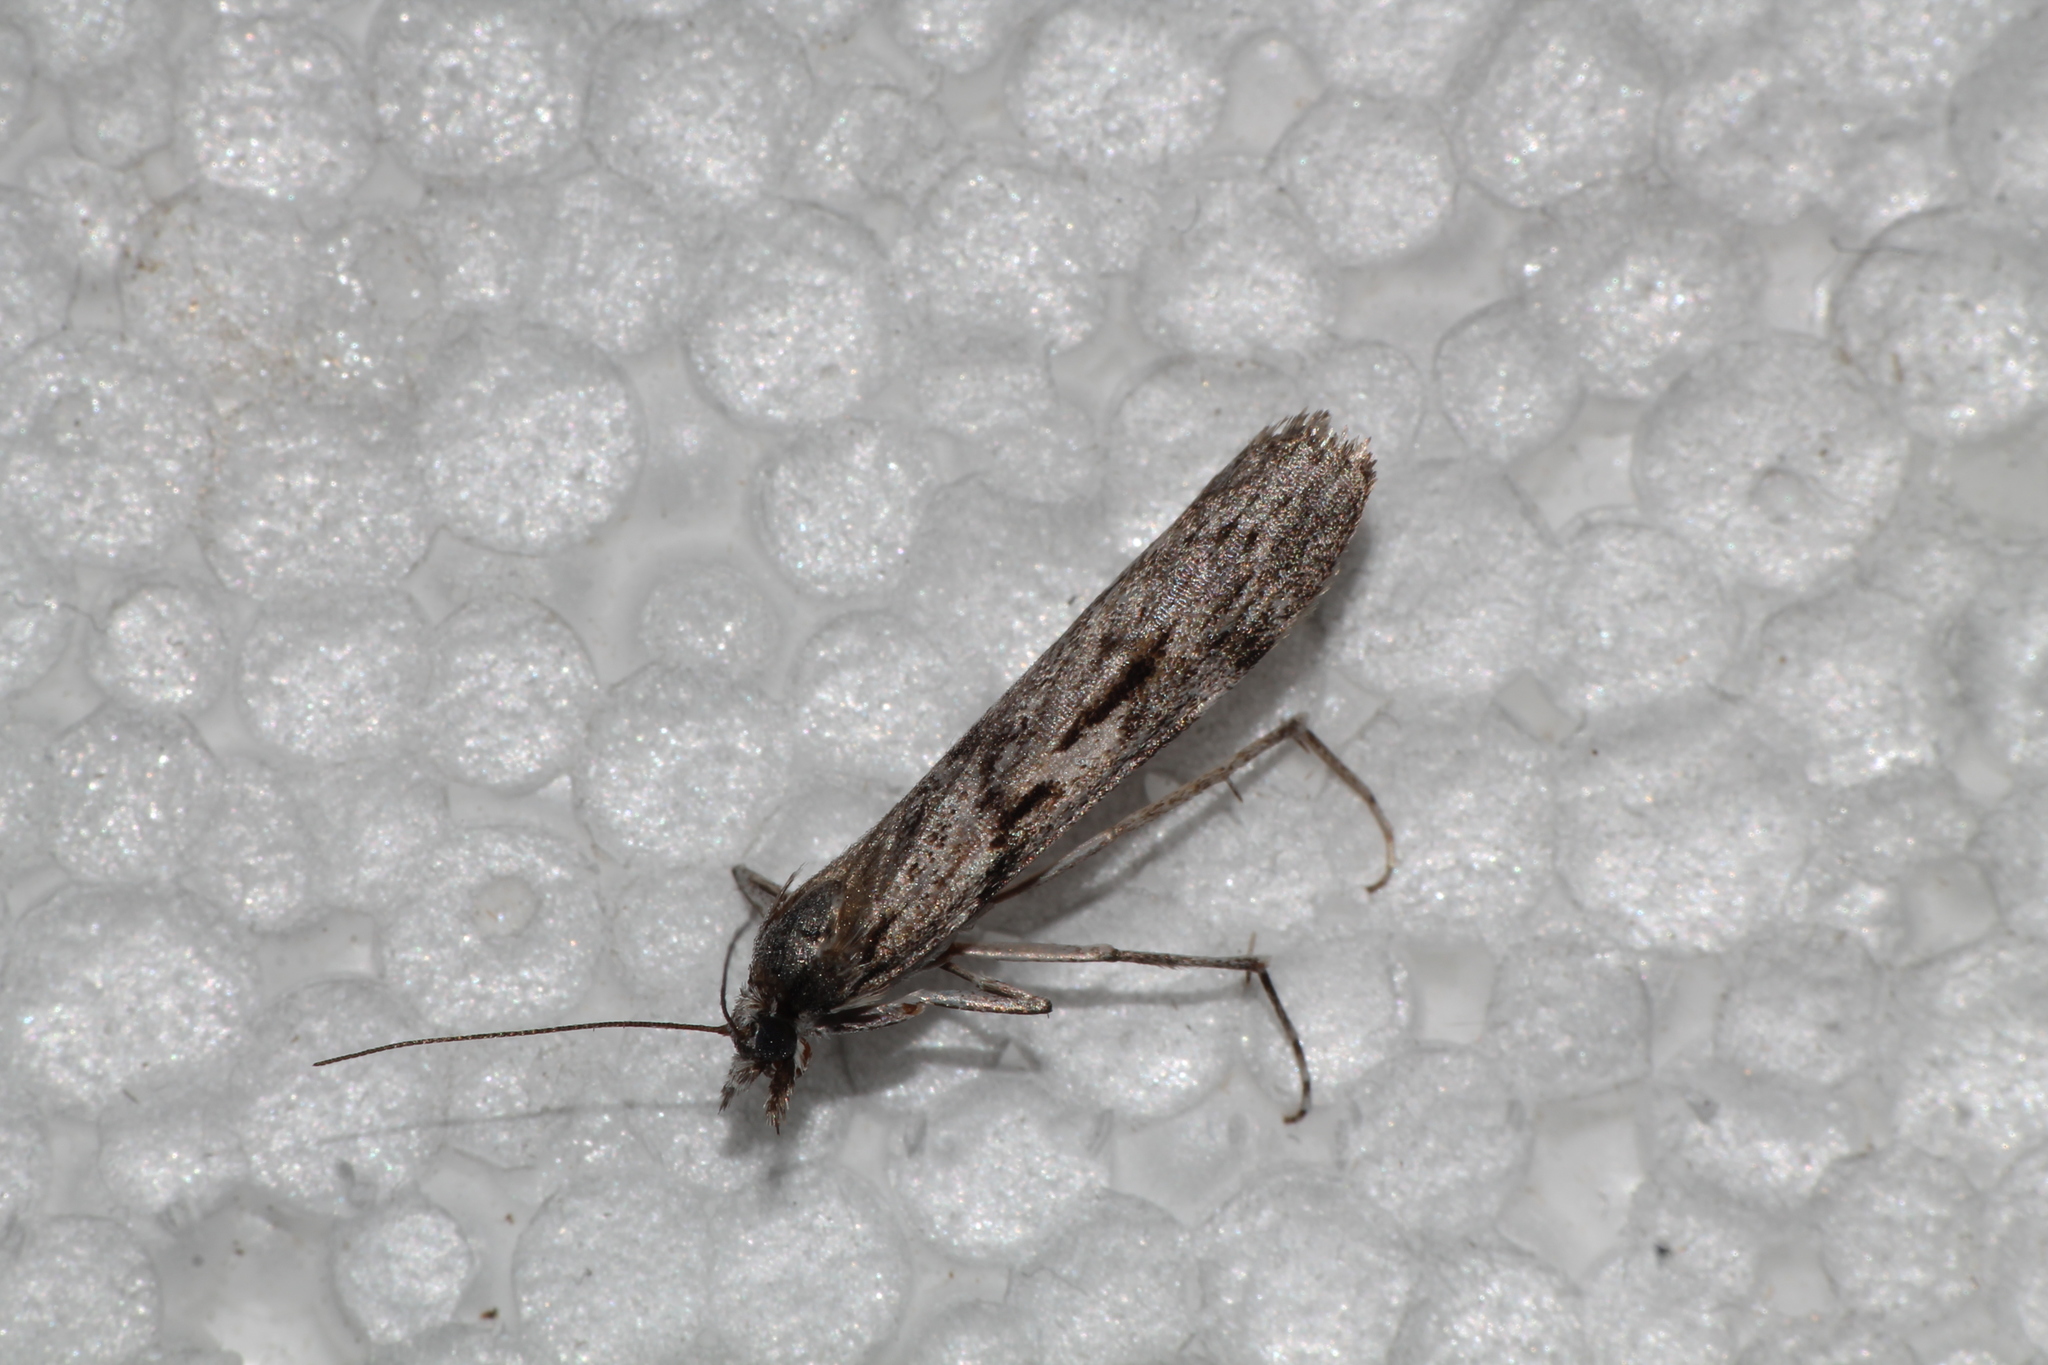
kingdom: Animalia
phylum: Arthropoda
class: Insecta
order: Lepidoptera
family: Crambidae
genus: Scoparia
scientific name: Scoparia halopis
